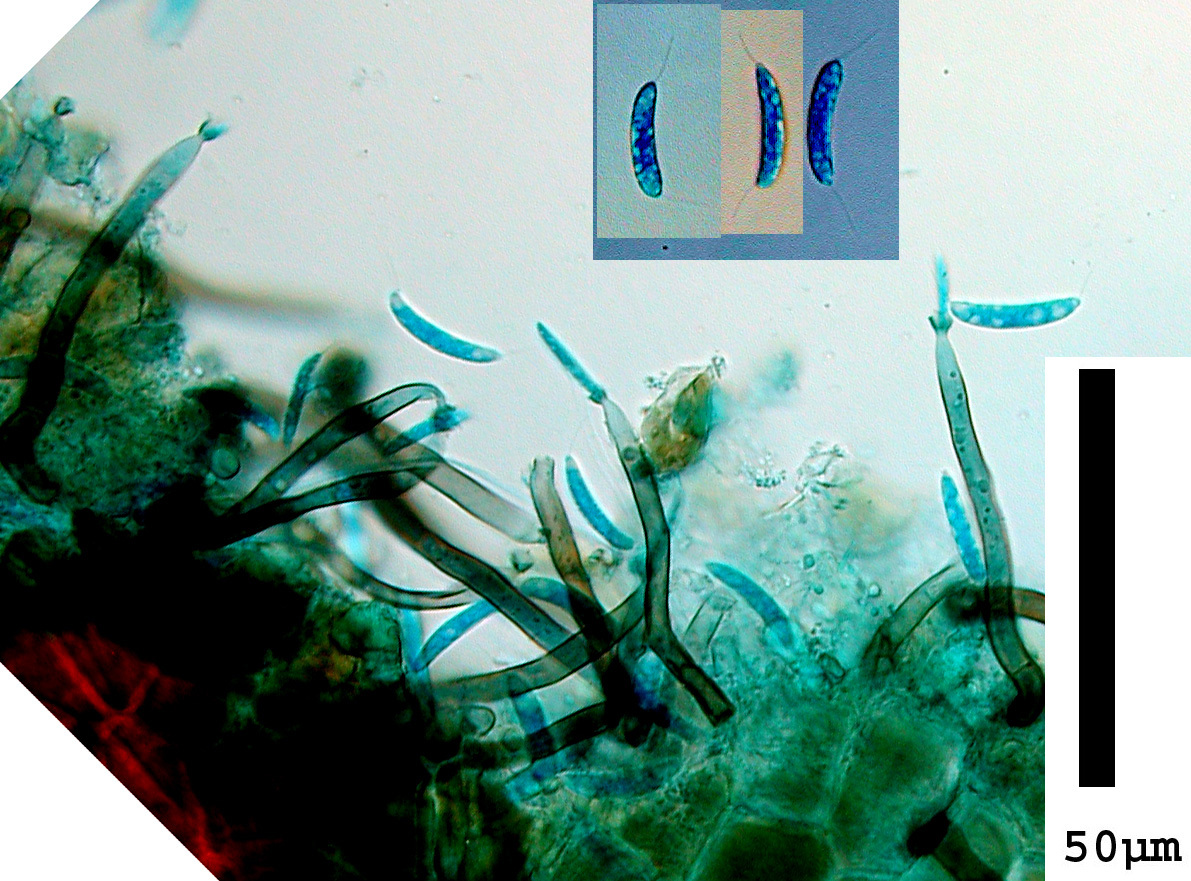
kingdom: Fungi
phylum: Ascomycota
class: Sordariomycetes
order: Chaetosphaeriales
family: Chaetosphaeriaceae
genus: Tainosphaeria
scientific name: Tainosphaeria simplex
